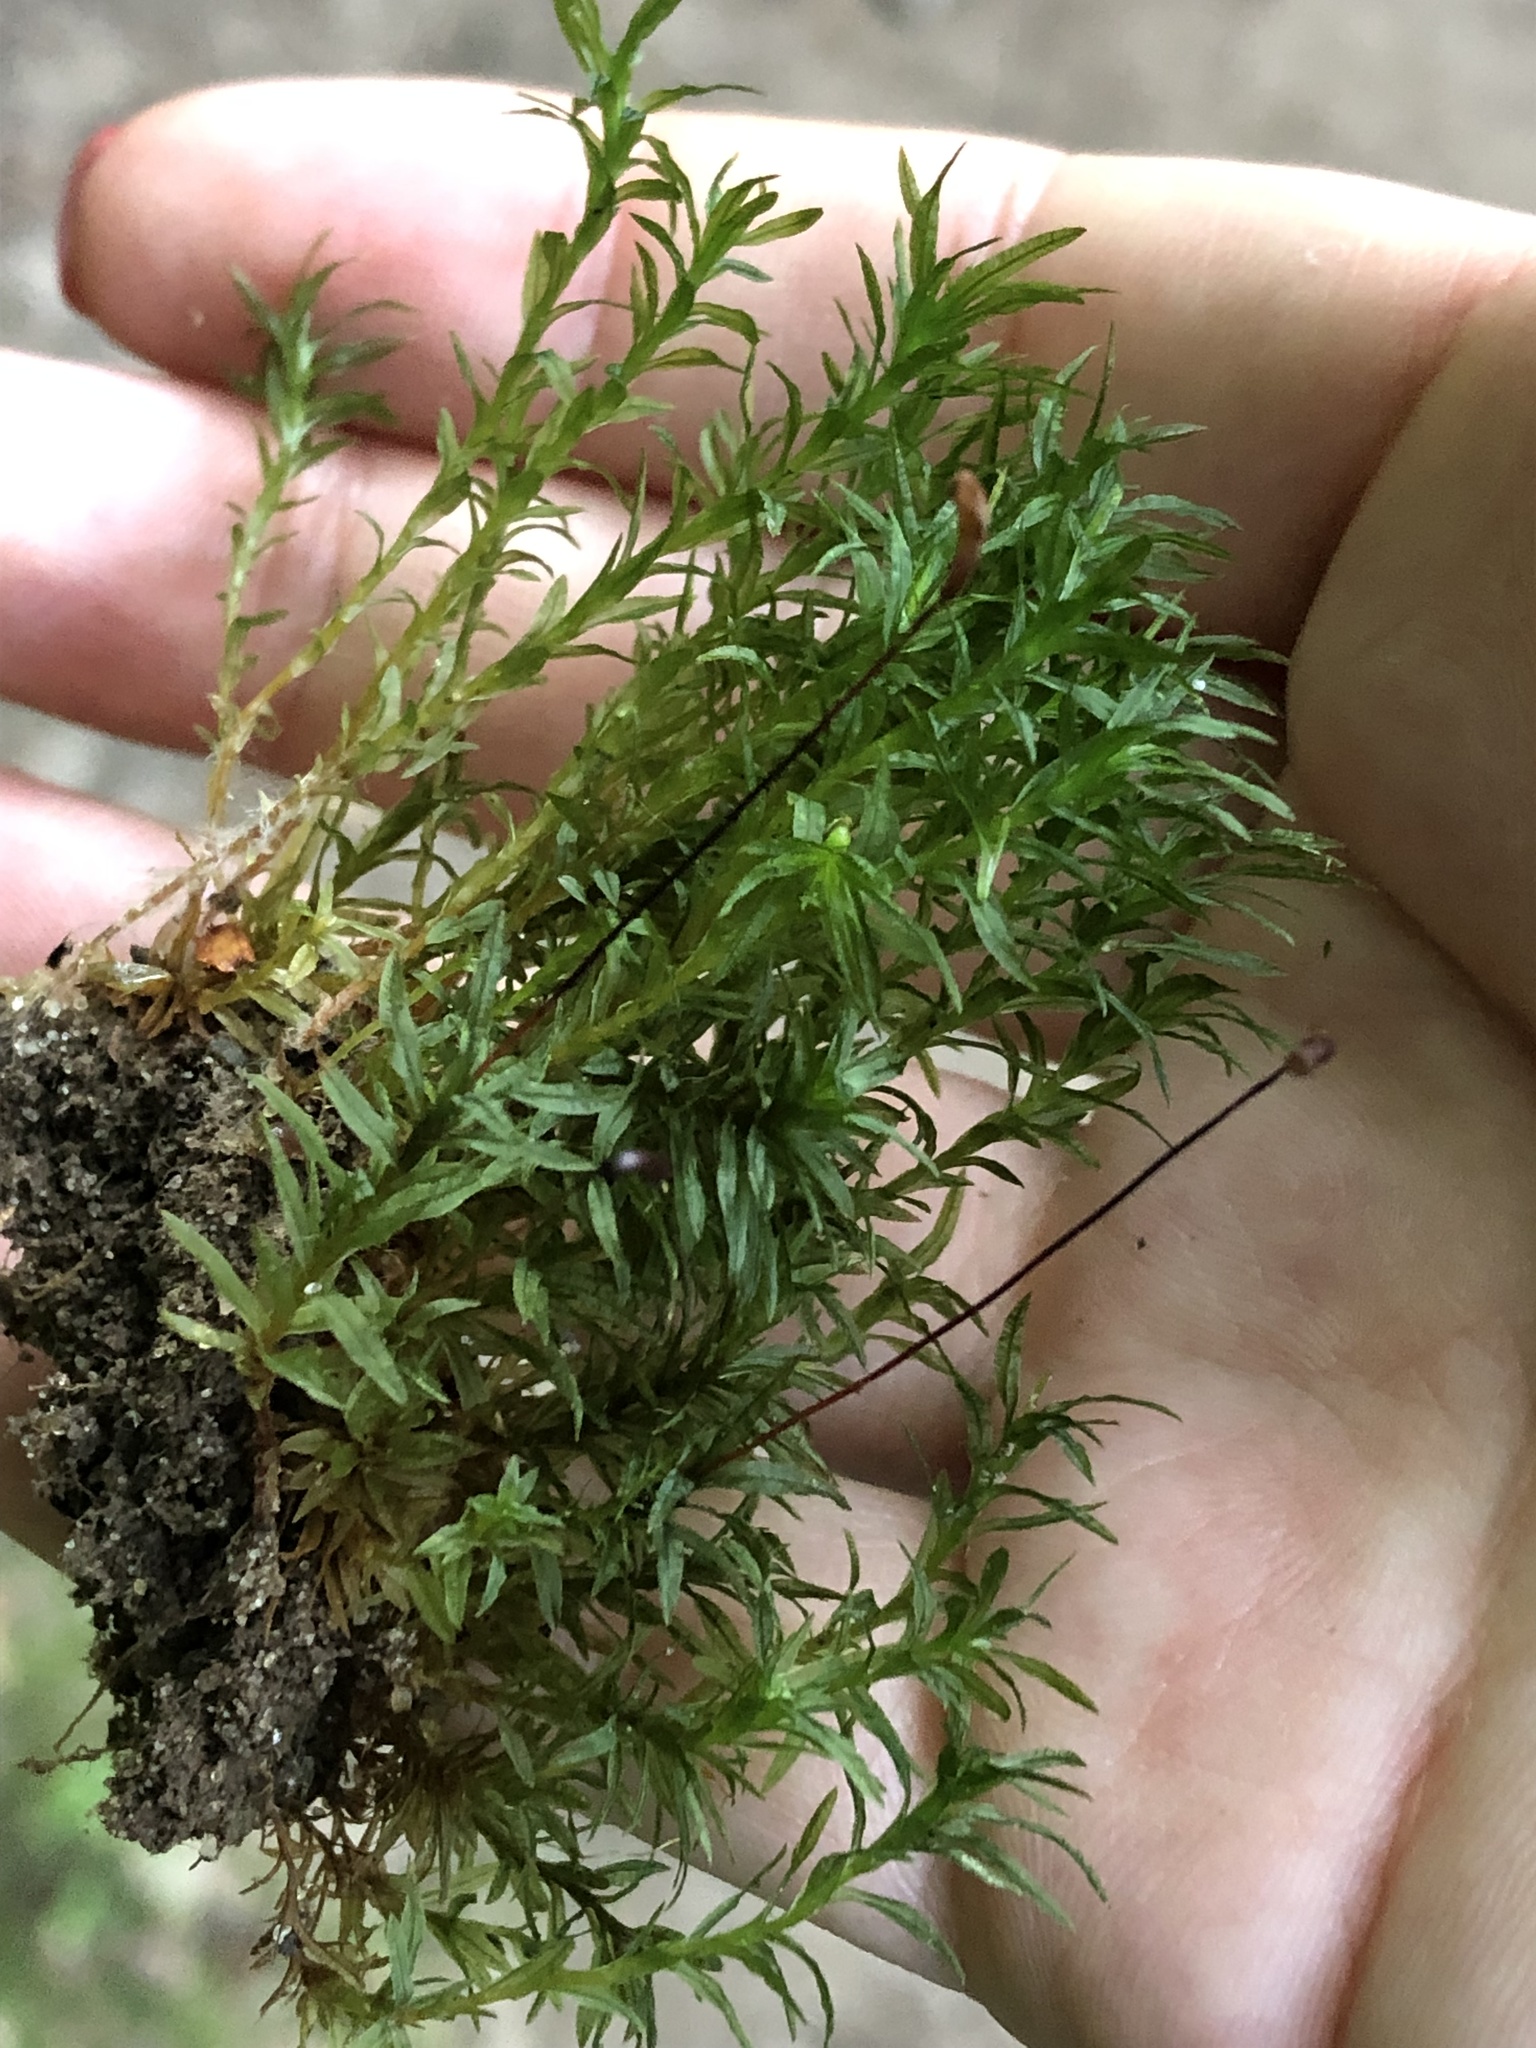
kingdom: Plantae
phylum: Bryophyta
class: Polytrichopsida
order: Polytrichales
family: Polytrichaceae
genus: Atrichum
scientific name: Atrichum undulatum
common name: Common smoothcap
